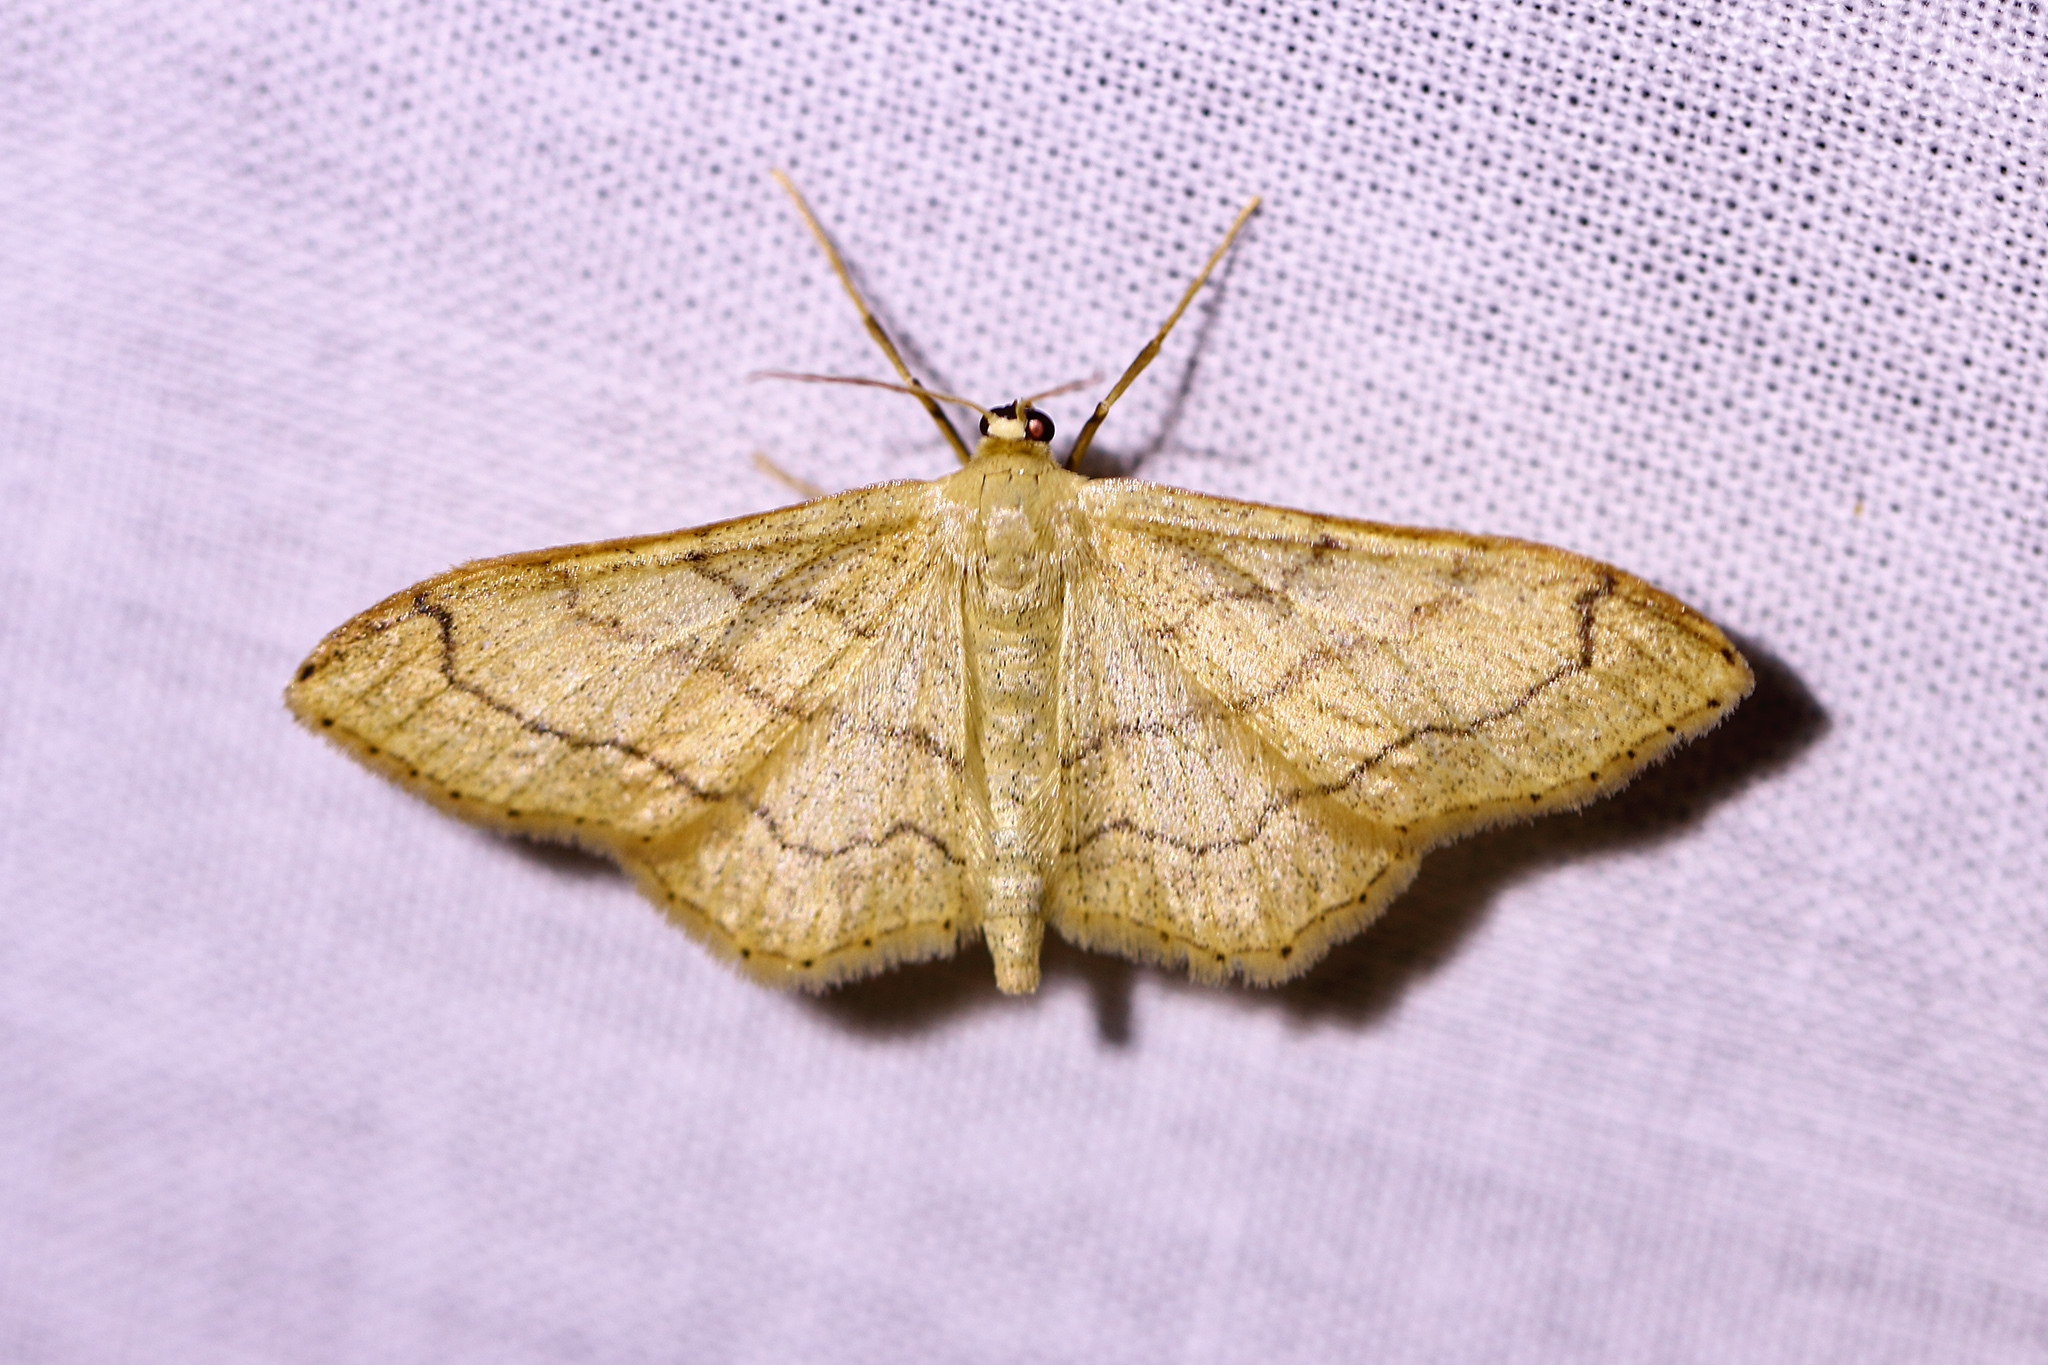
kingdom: Animalia
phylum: Arthropoda
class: Insecta
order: Lepidoptera
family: Geometridae
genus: Idaea
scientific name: Idaea aversata
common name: Riband wave
